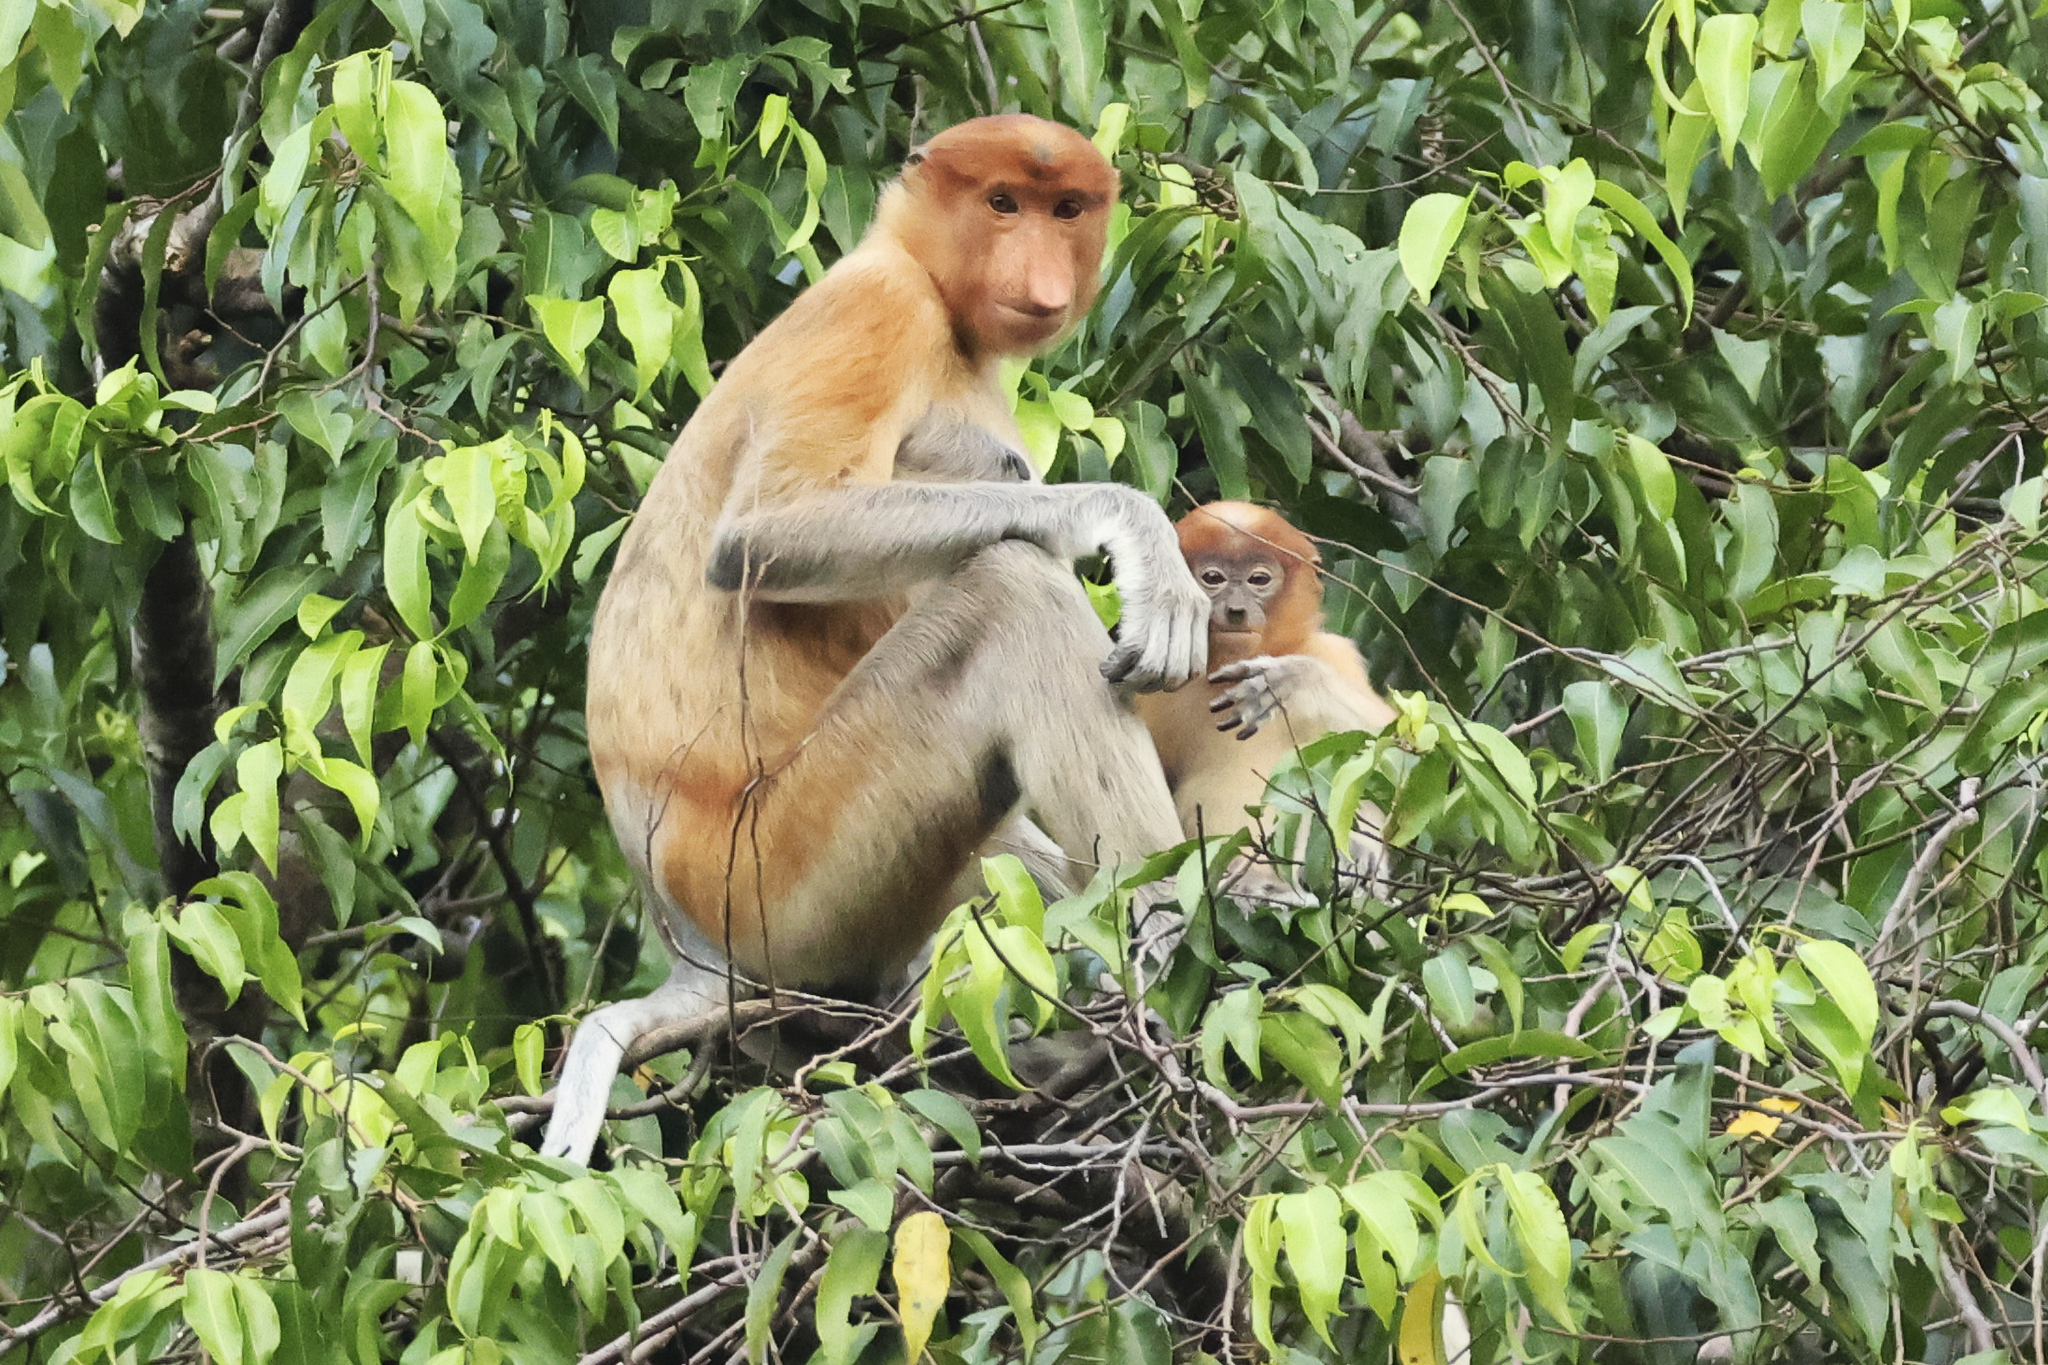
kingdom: Animalia
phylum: Chordata
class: Mammalia
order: Primates
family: Cercopithecidae
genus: Nasalis
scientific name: Nasalis larvatus
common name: Proboscis monkey
